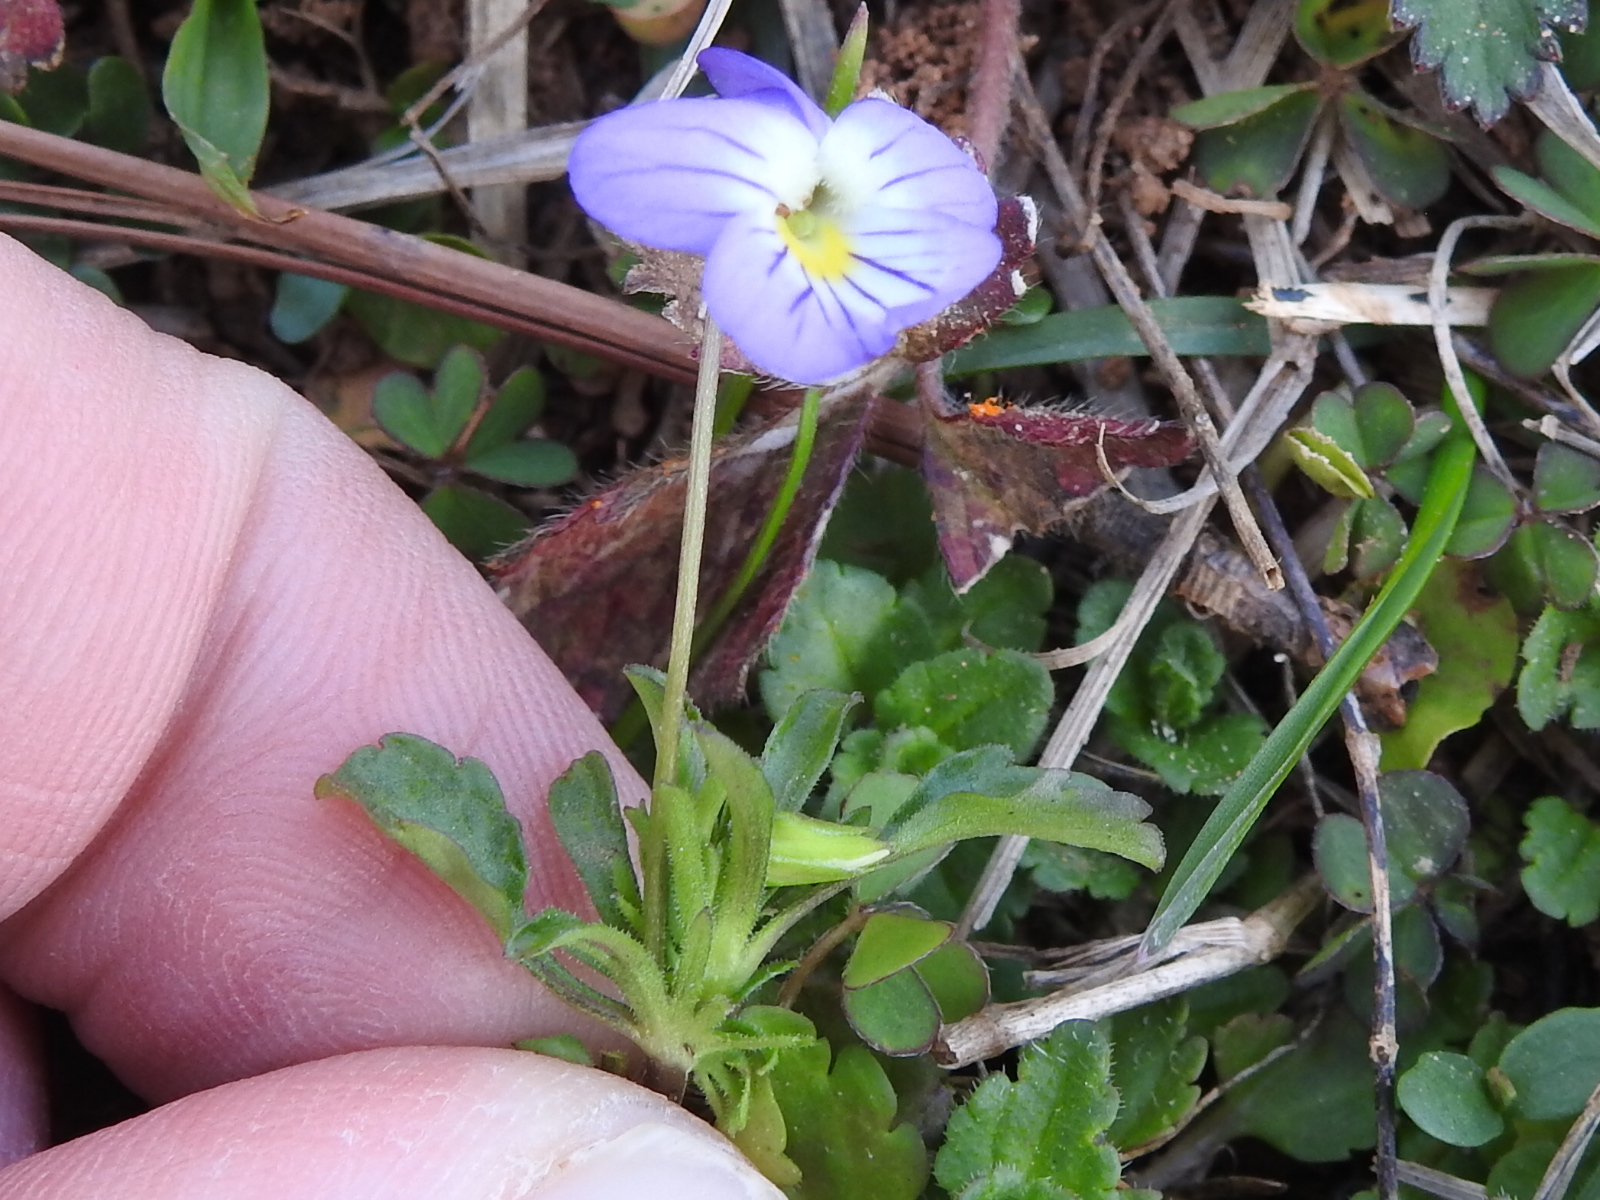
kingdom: Plantae
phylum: Tracheophyta
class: Magnoliopsida
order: Malpighiales
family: Violaceae
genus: Viola
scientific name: Viola rafinesquei
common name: American field pansy
